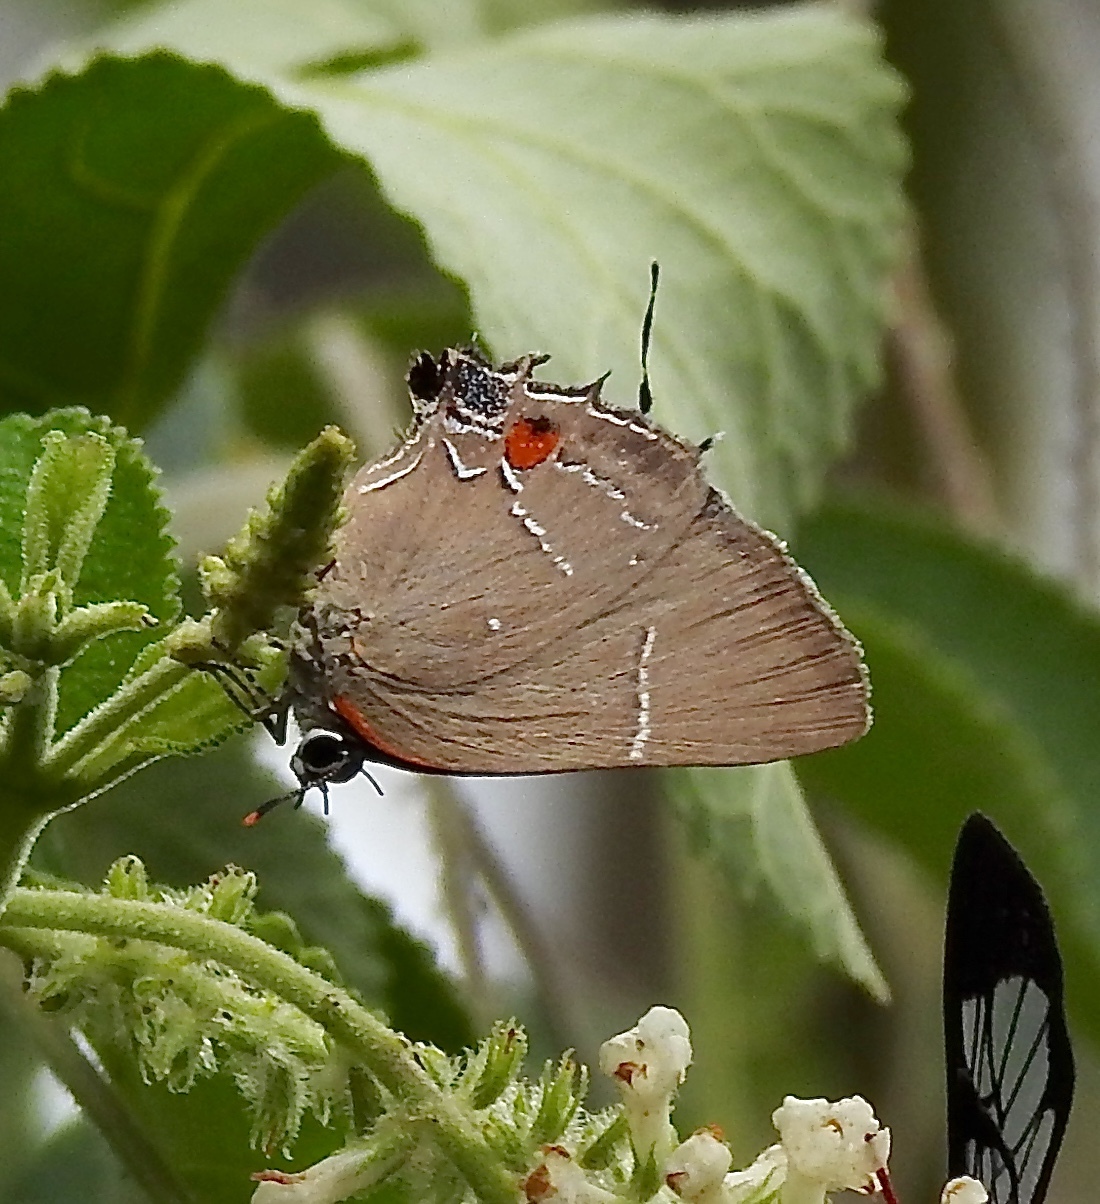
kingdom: Animalia
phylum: Arthropoda
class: Insecta
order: Lepidoptera
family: Lycaenidae
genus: Parrhasius
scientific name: Parrhasius m-album
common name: White m hairstreak
